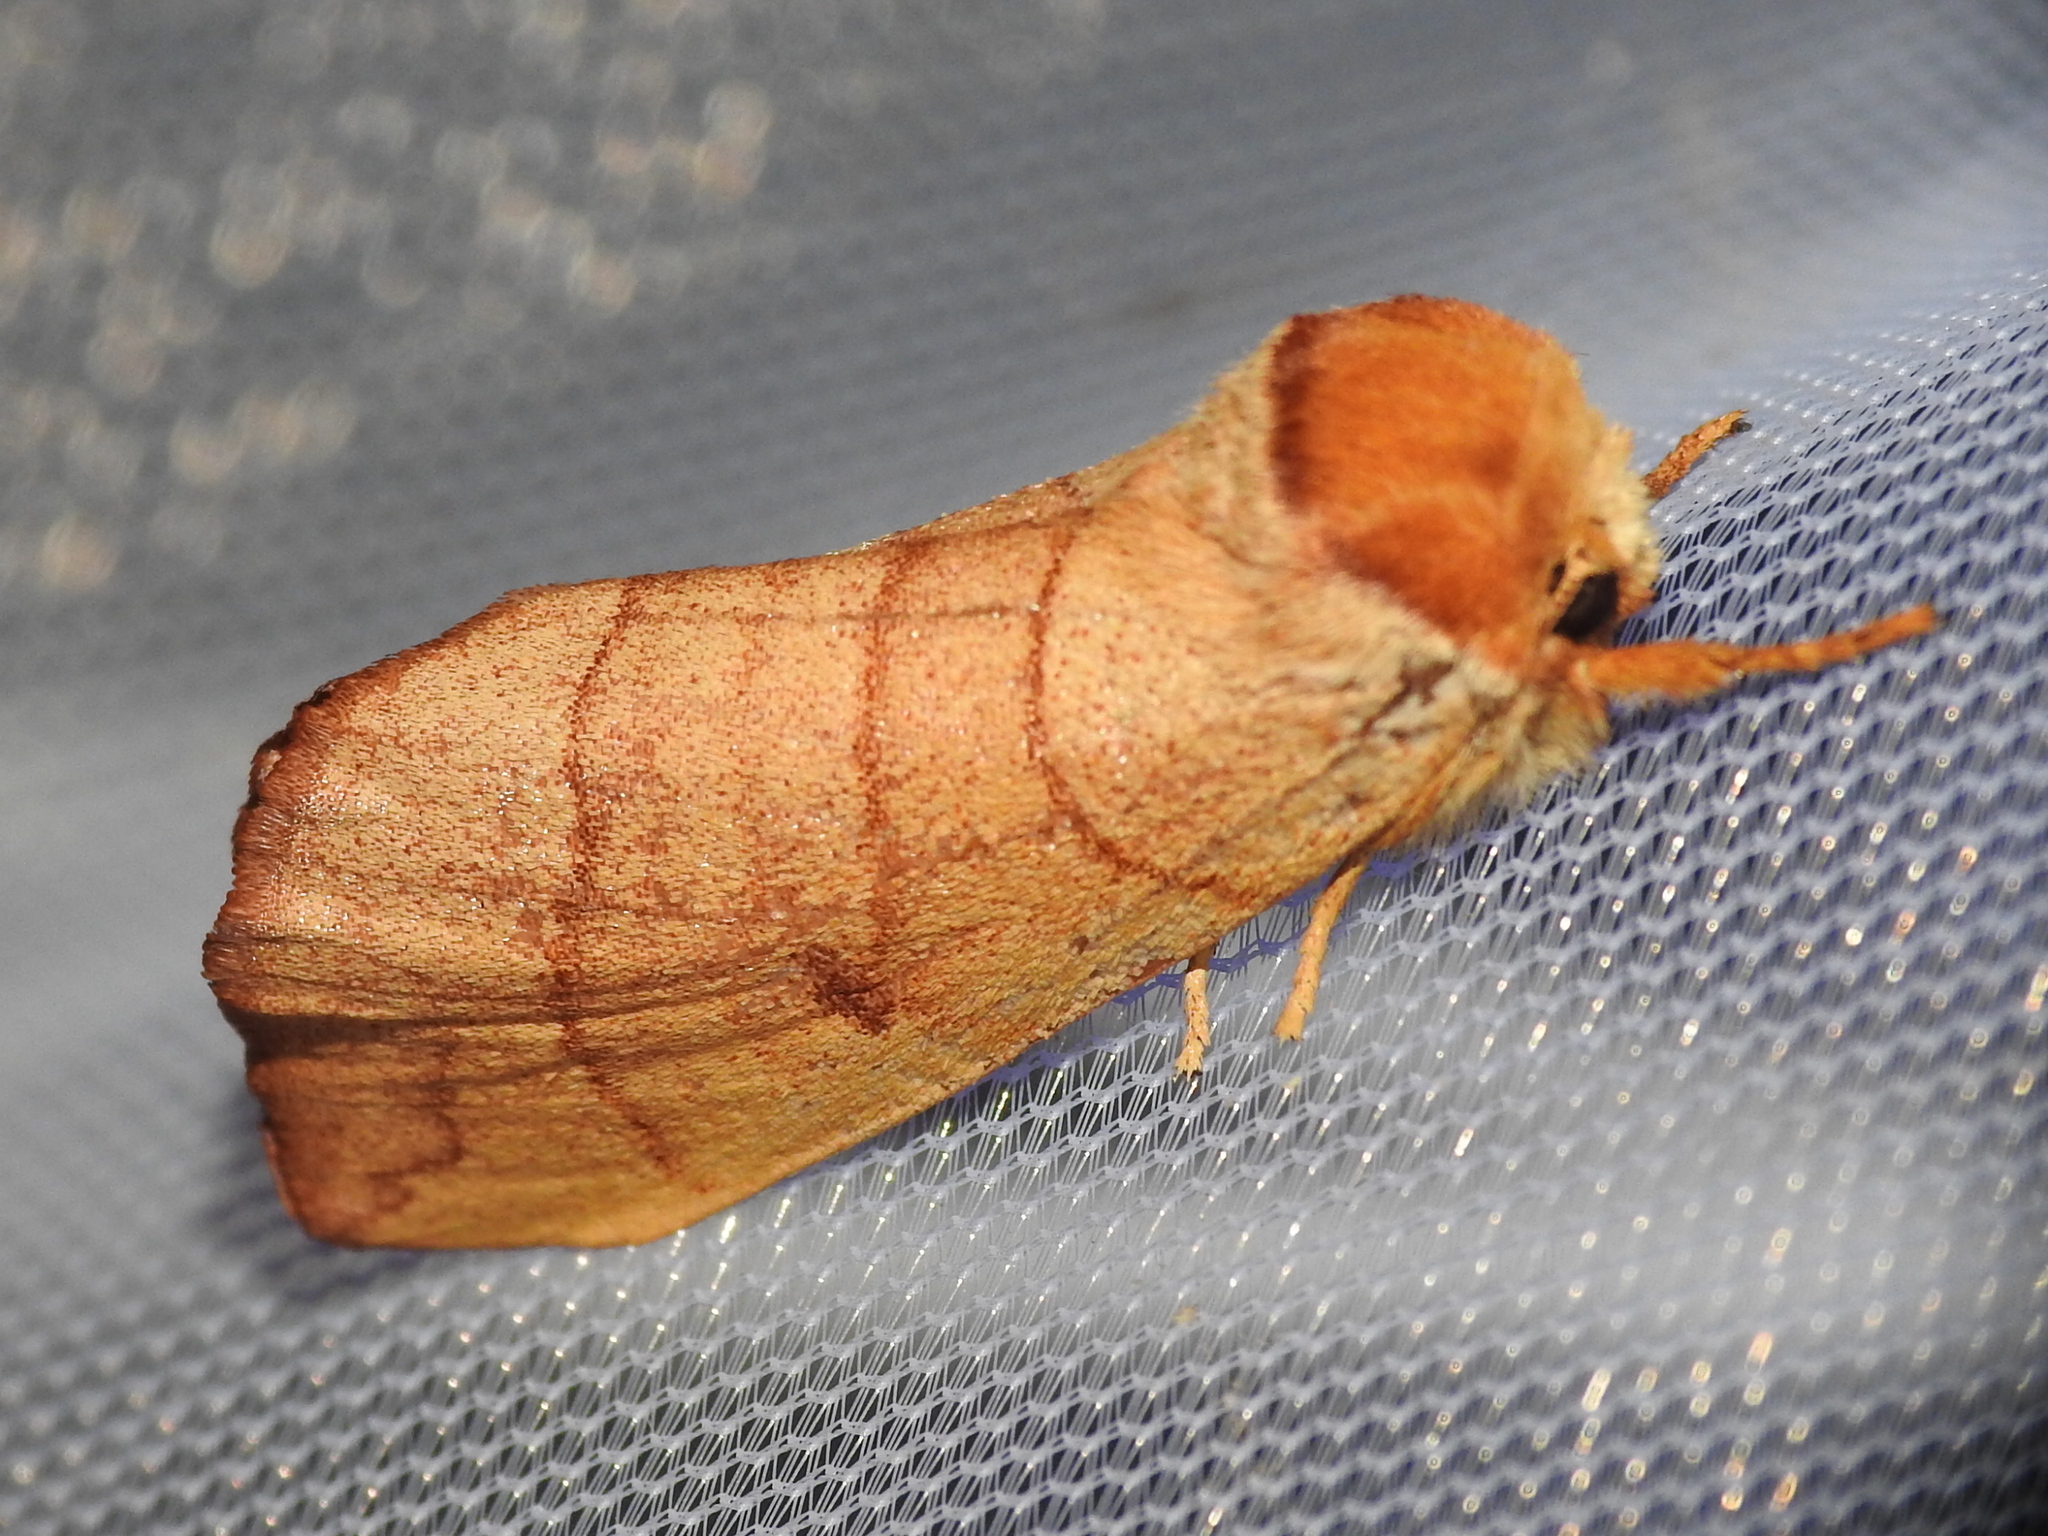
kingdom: Animalia
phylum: Arthropoda
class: Insecta
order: Lepidoptera
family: Notodontidae
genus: Datana
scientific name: Datana perspicua
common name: Spotted datana
